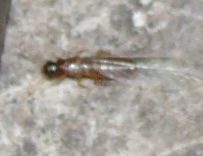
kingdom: Animalia
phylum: Arthropoda
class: Insecta
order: Blattodea
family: Rhinotermitidae
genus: Coptotermes
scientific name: Coptotermes gestroi
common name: Subterranean termite
